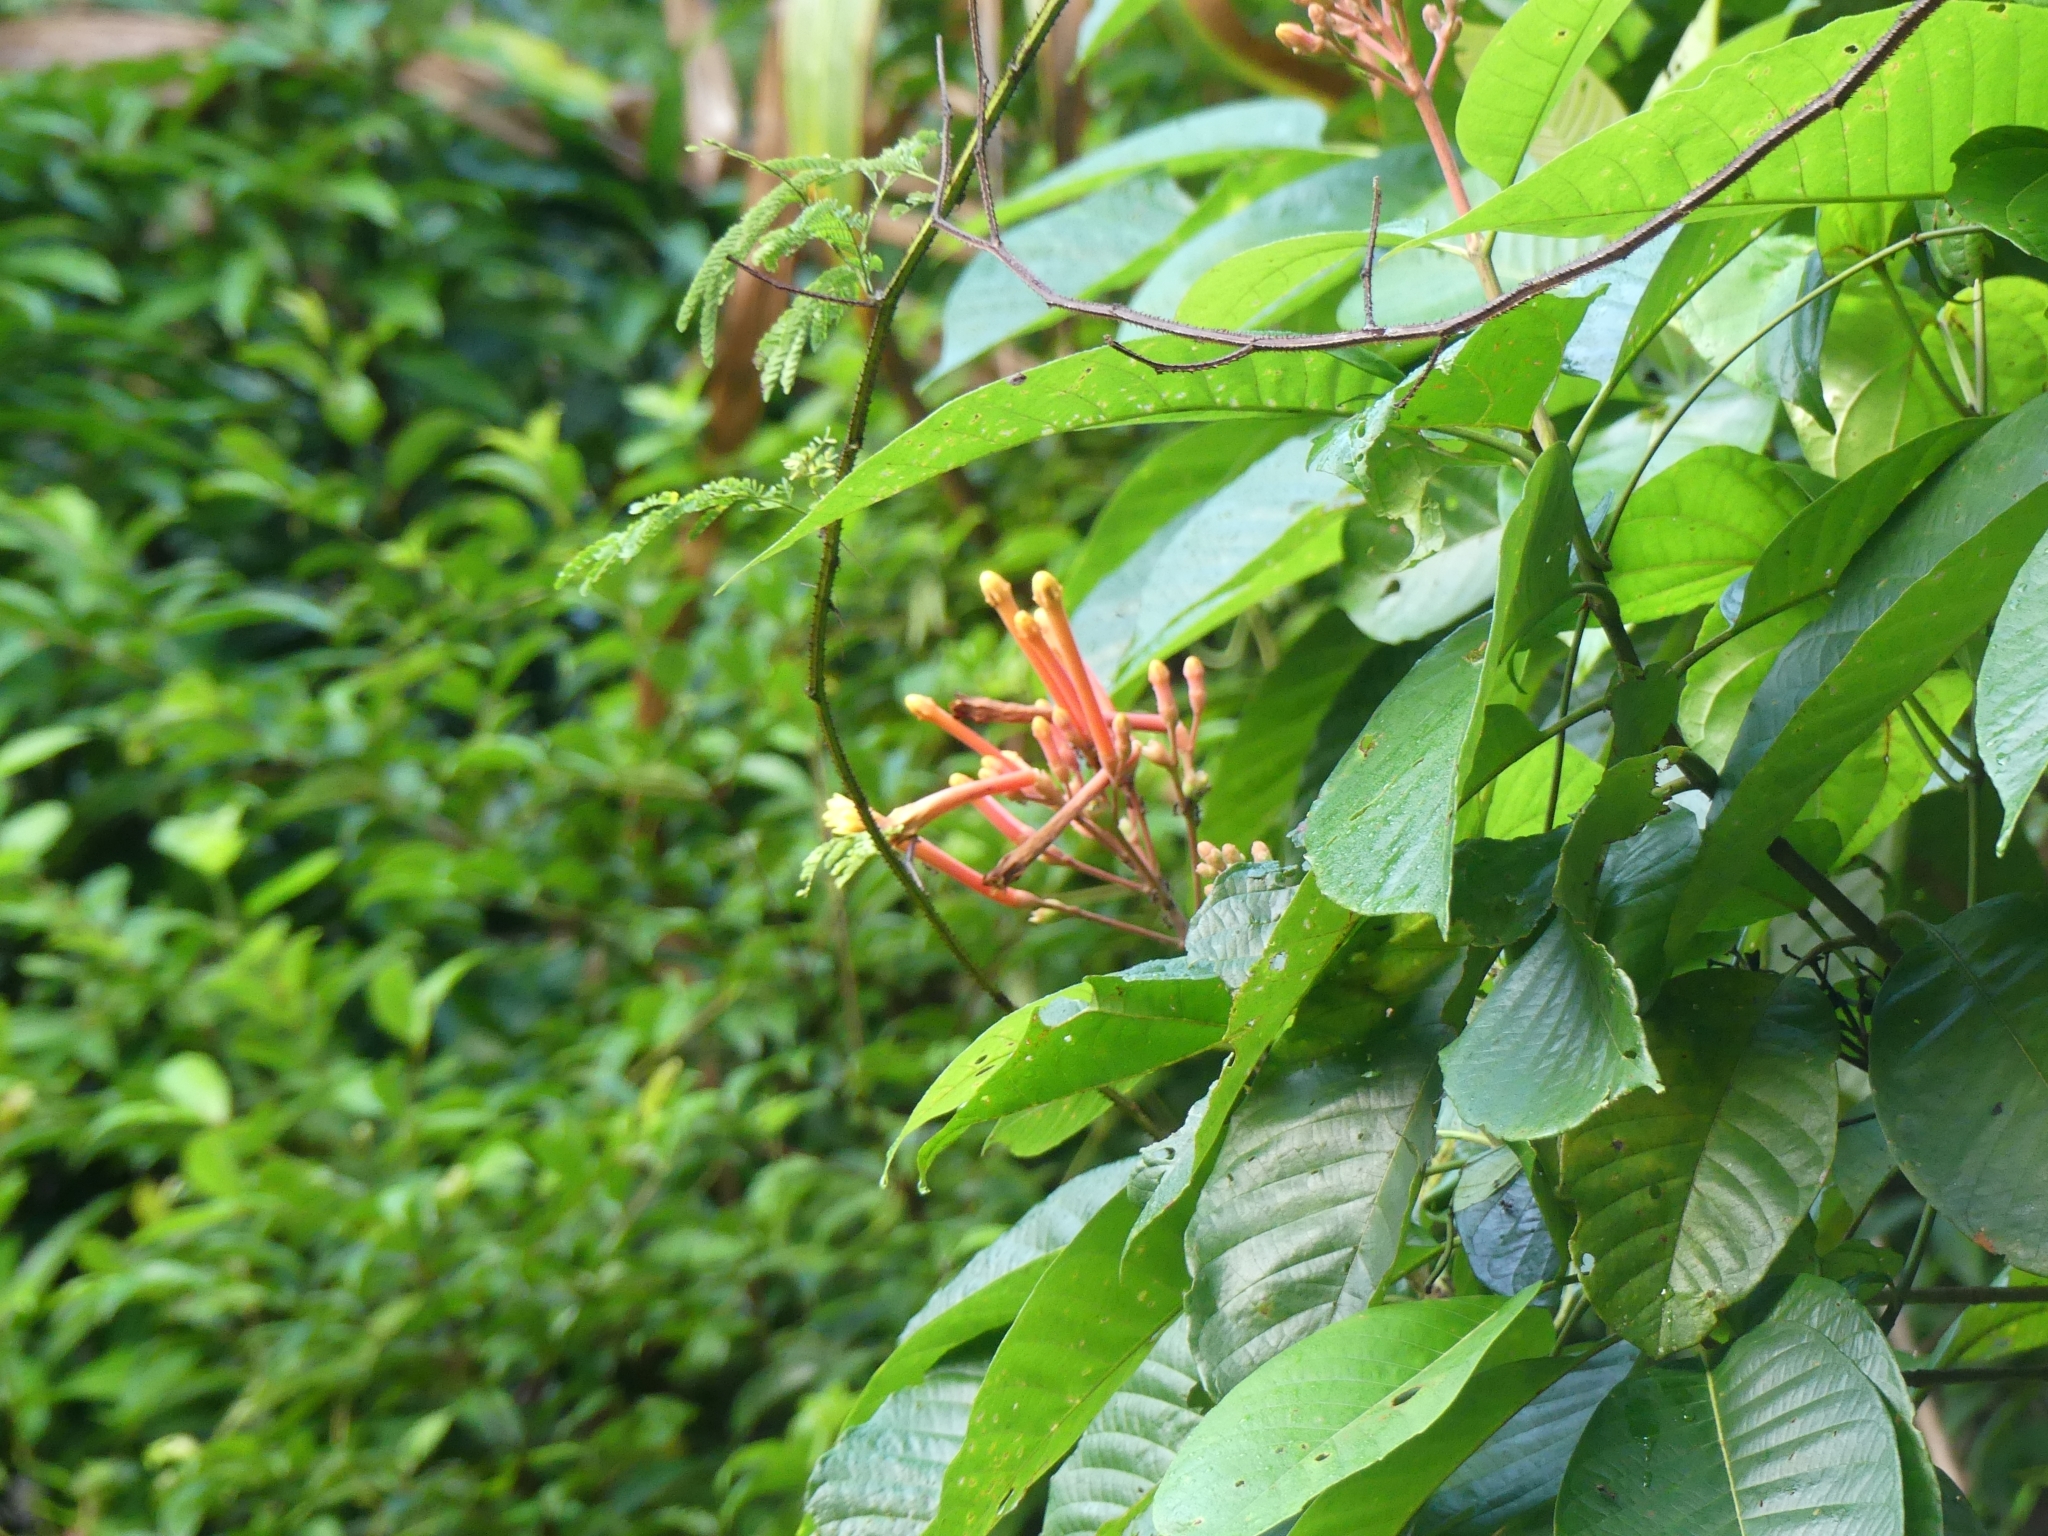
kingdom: Plantae
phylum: Tracheophyta
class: Magnoliopsida
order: Gentianales
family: Rubiaceae
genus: Isertia
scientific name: Isertia coccinea
